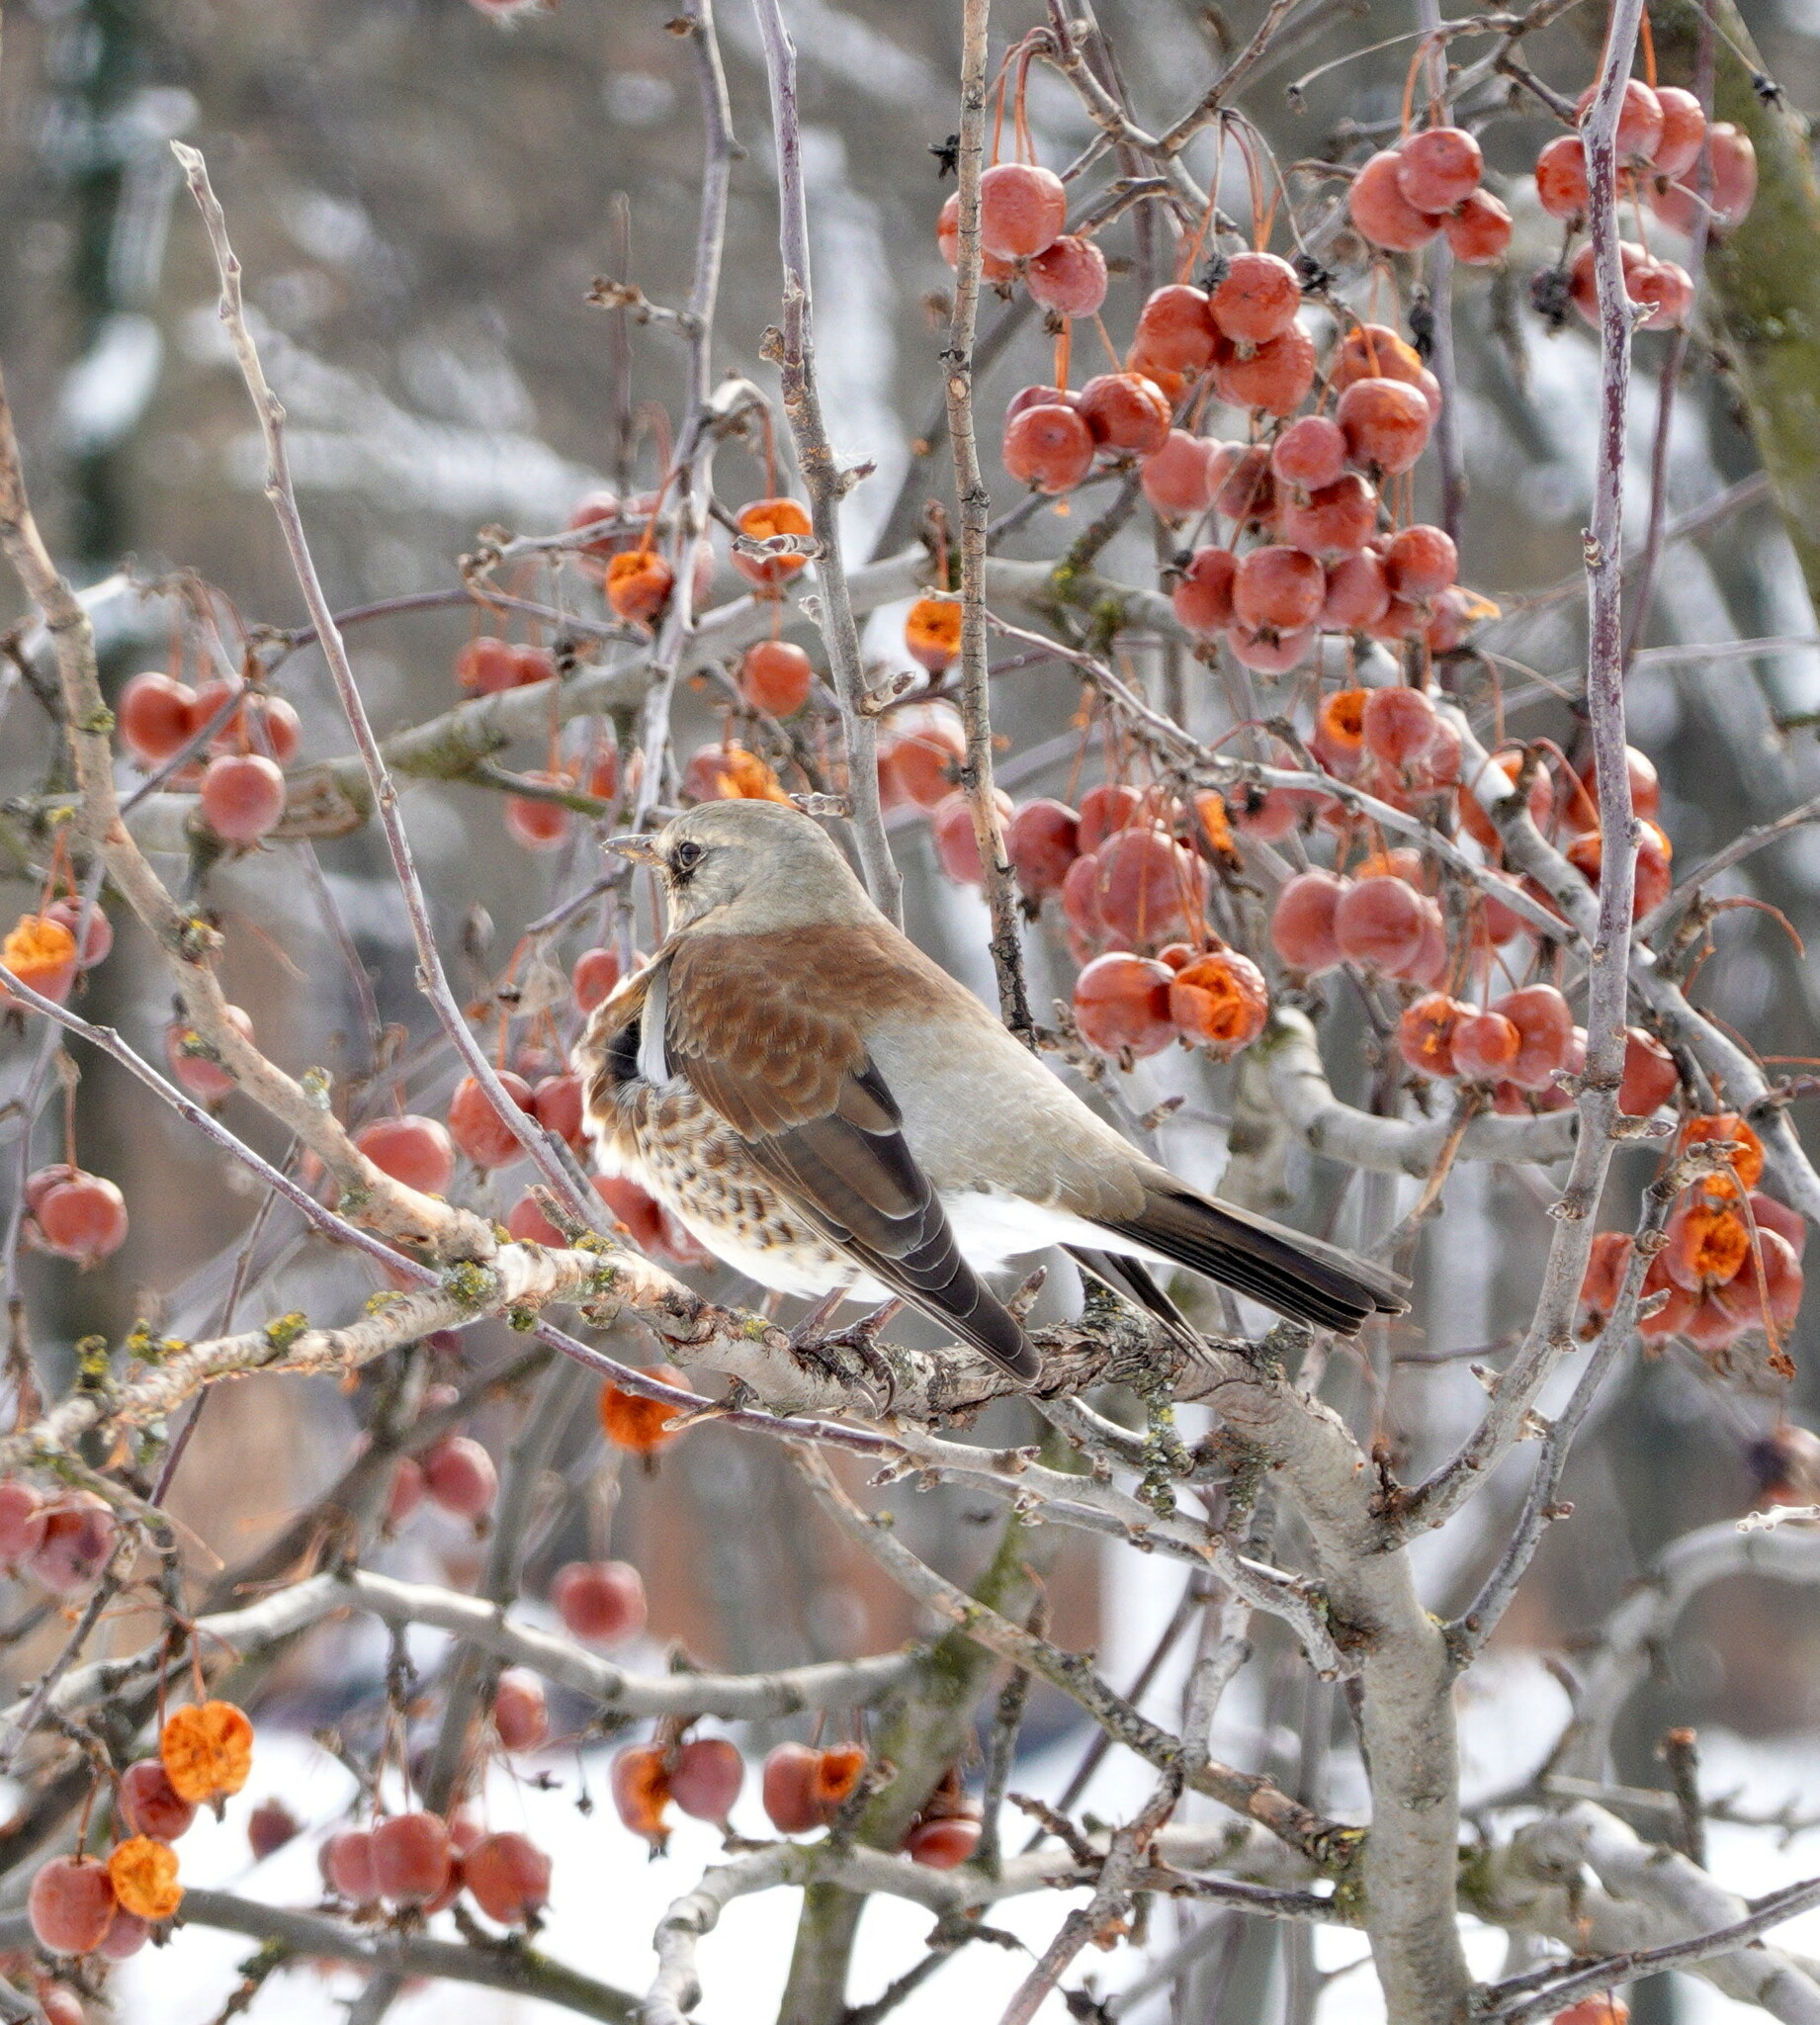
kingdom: Animalia
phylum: Chordata
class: Aves
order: Passeriformes
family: Turdidae
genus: Turdus
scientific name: Turdus pilaris
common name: Fieldfare
